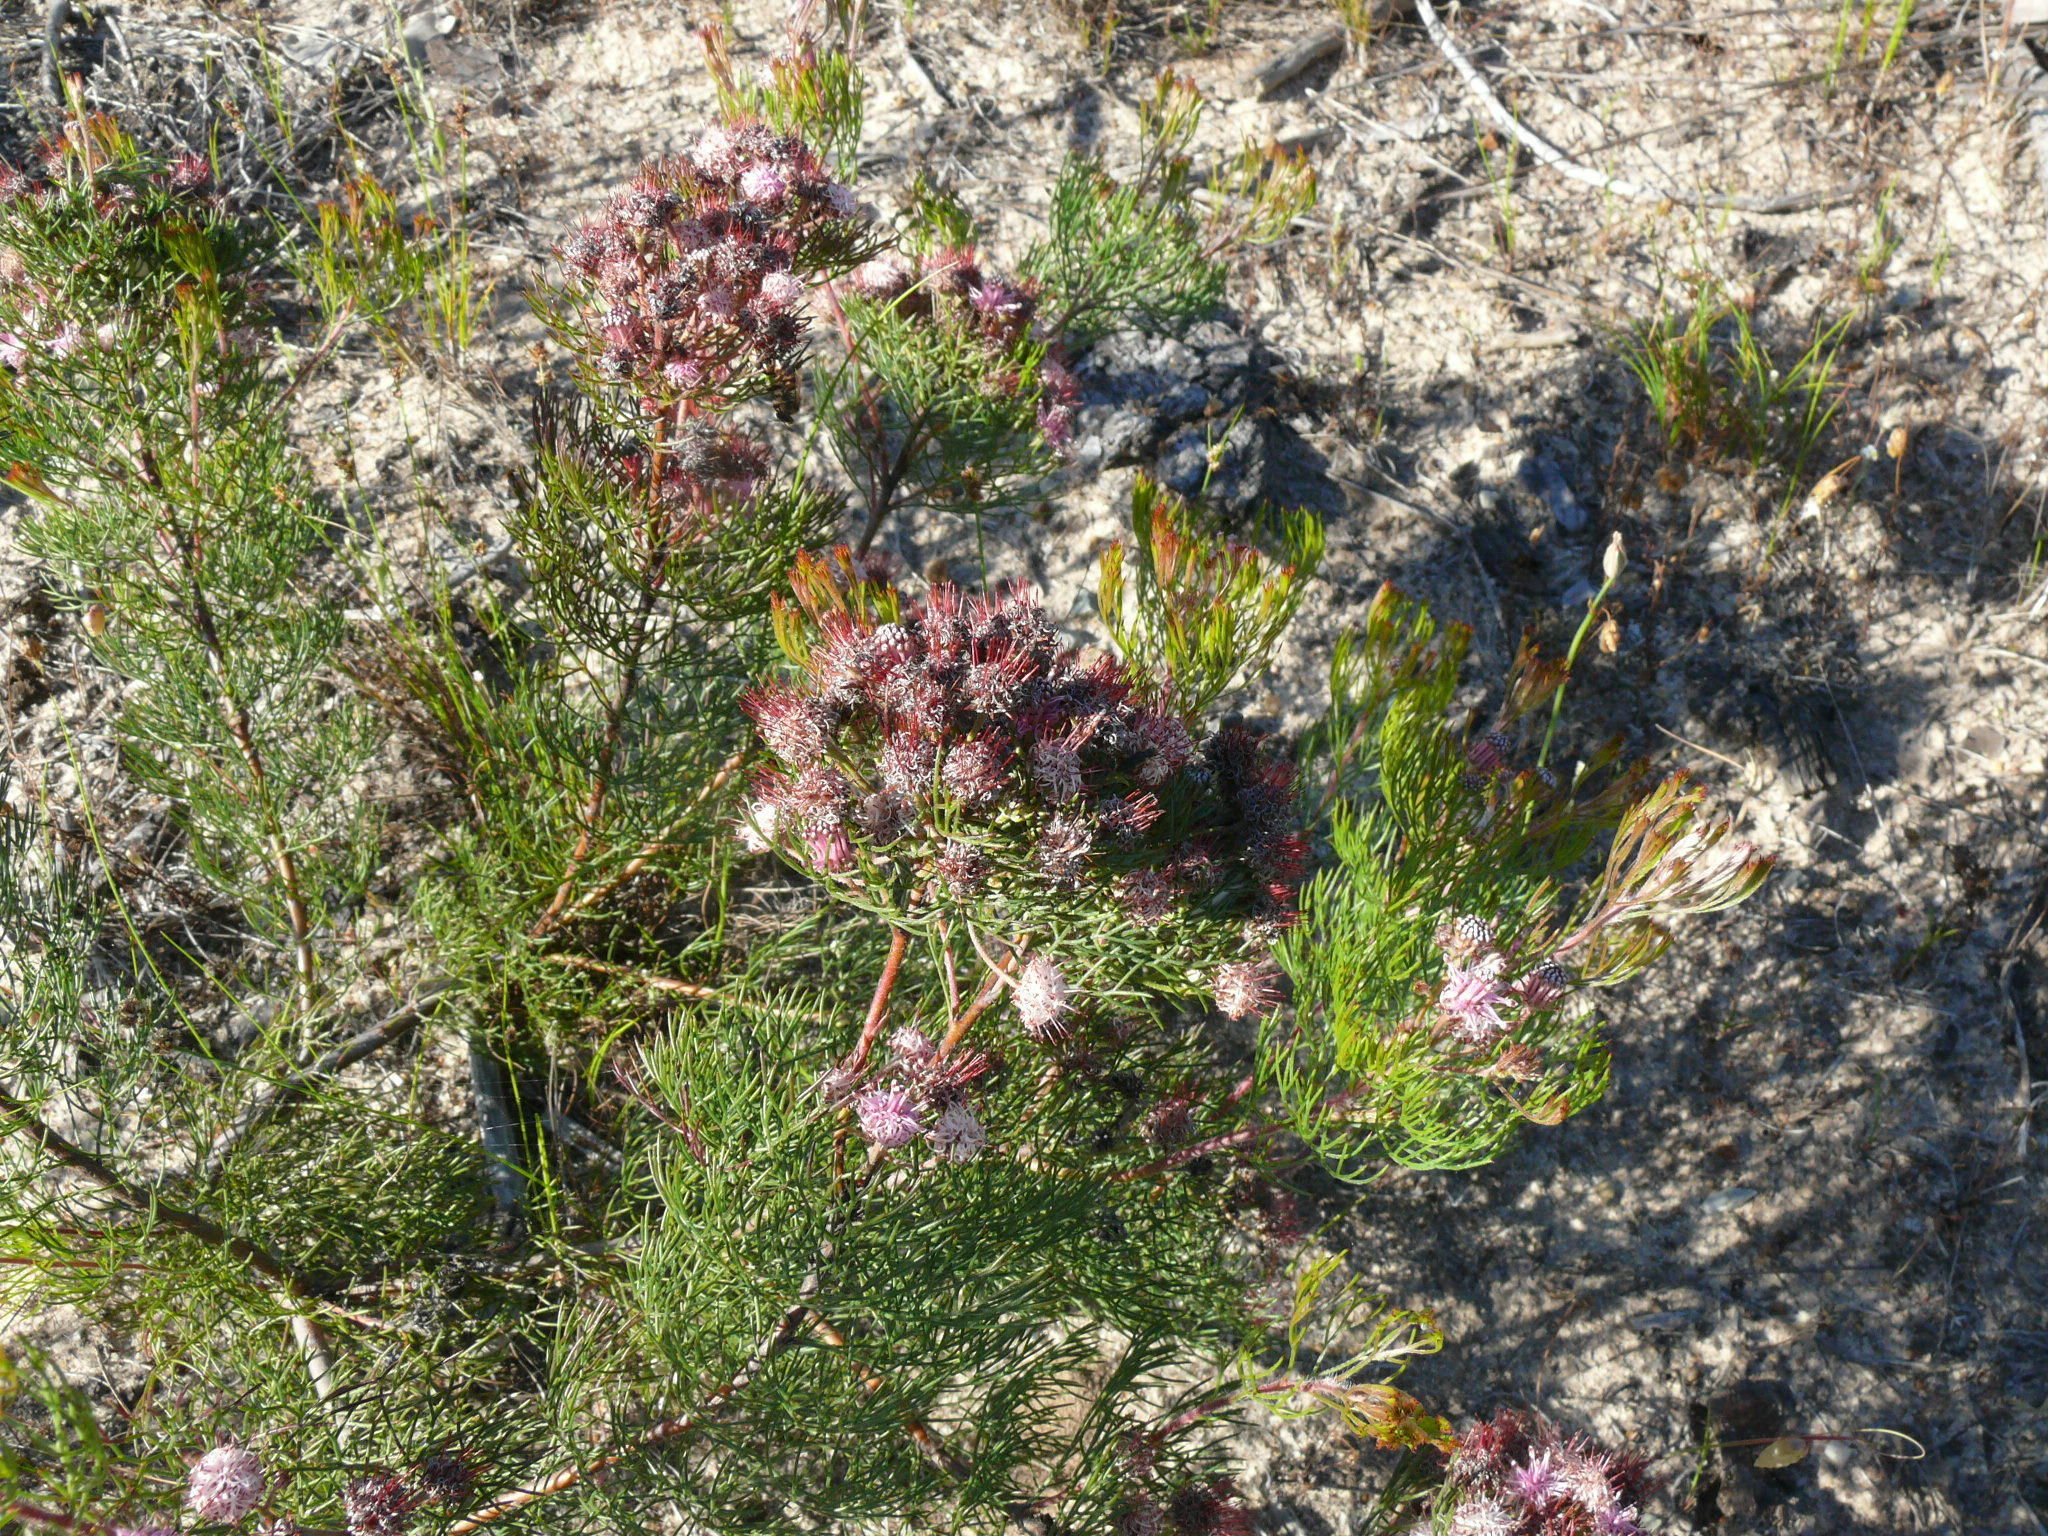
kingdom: Plantae
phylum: Tracheophyta
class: Magnoliopsida
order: Proteales
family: Proteaceae
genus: Serruria
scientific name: Serruria fasciflora
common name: Common pin spiderhead
